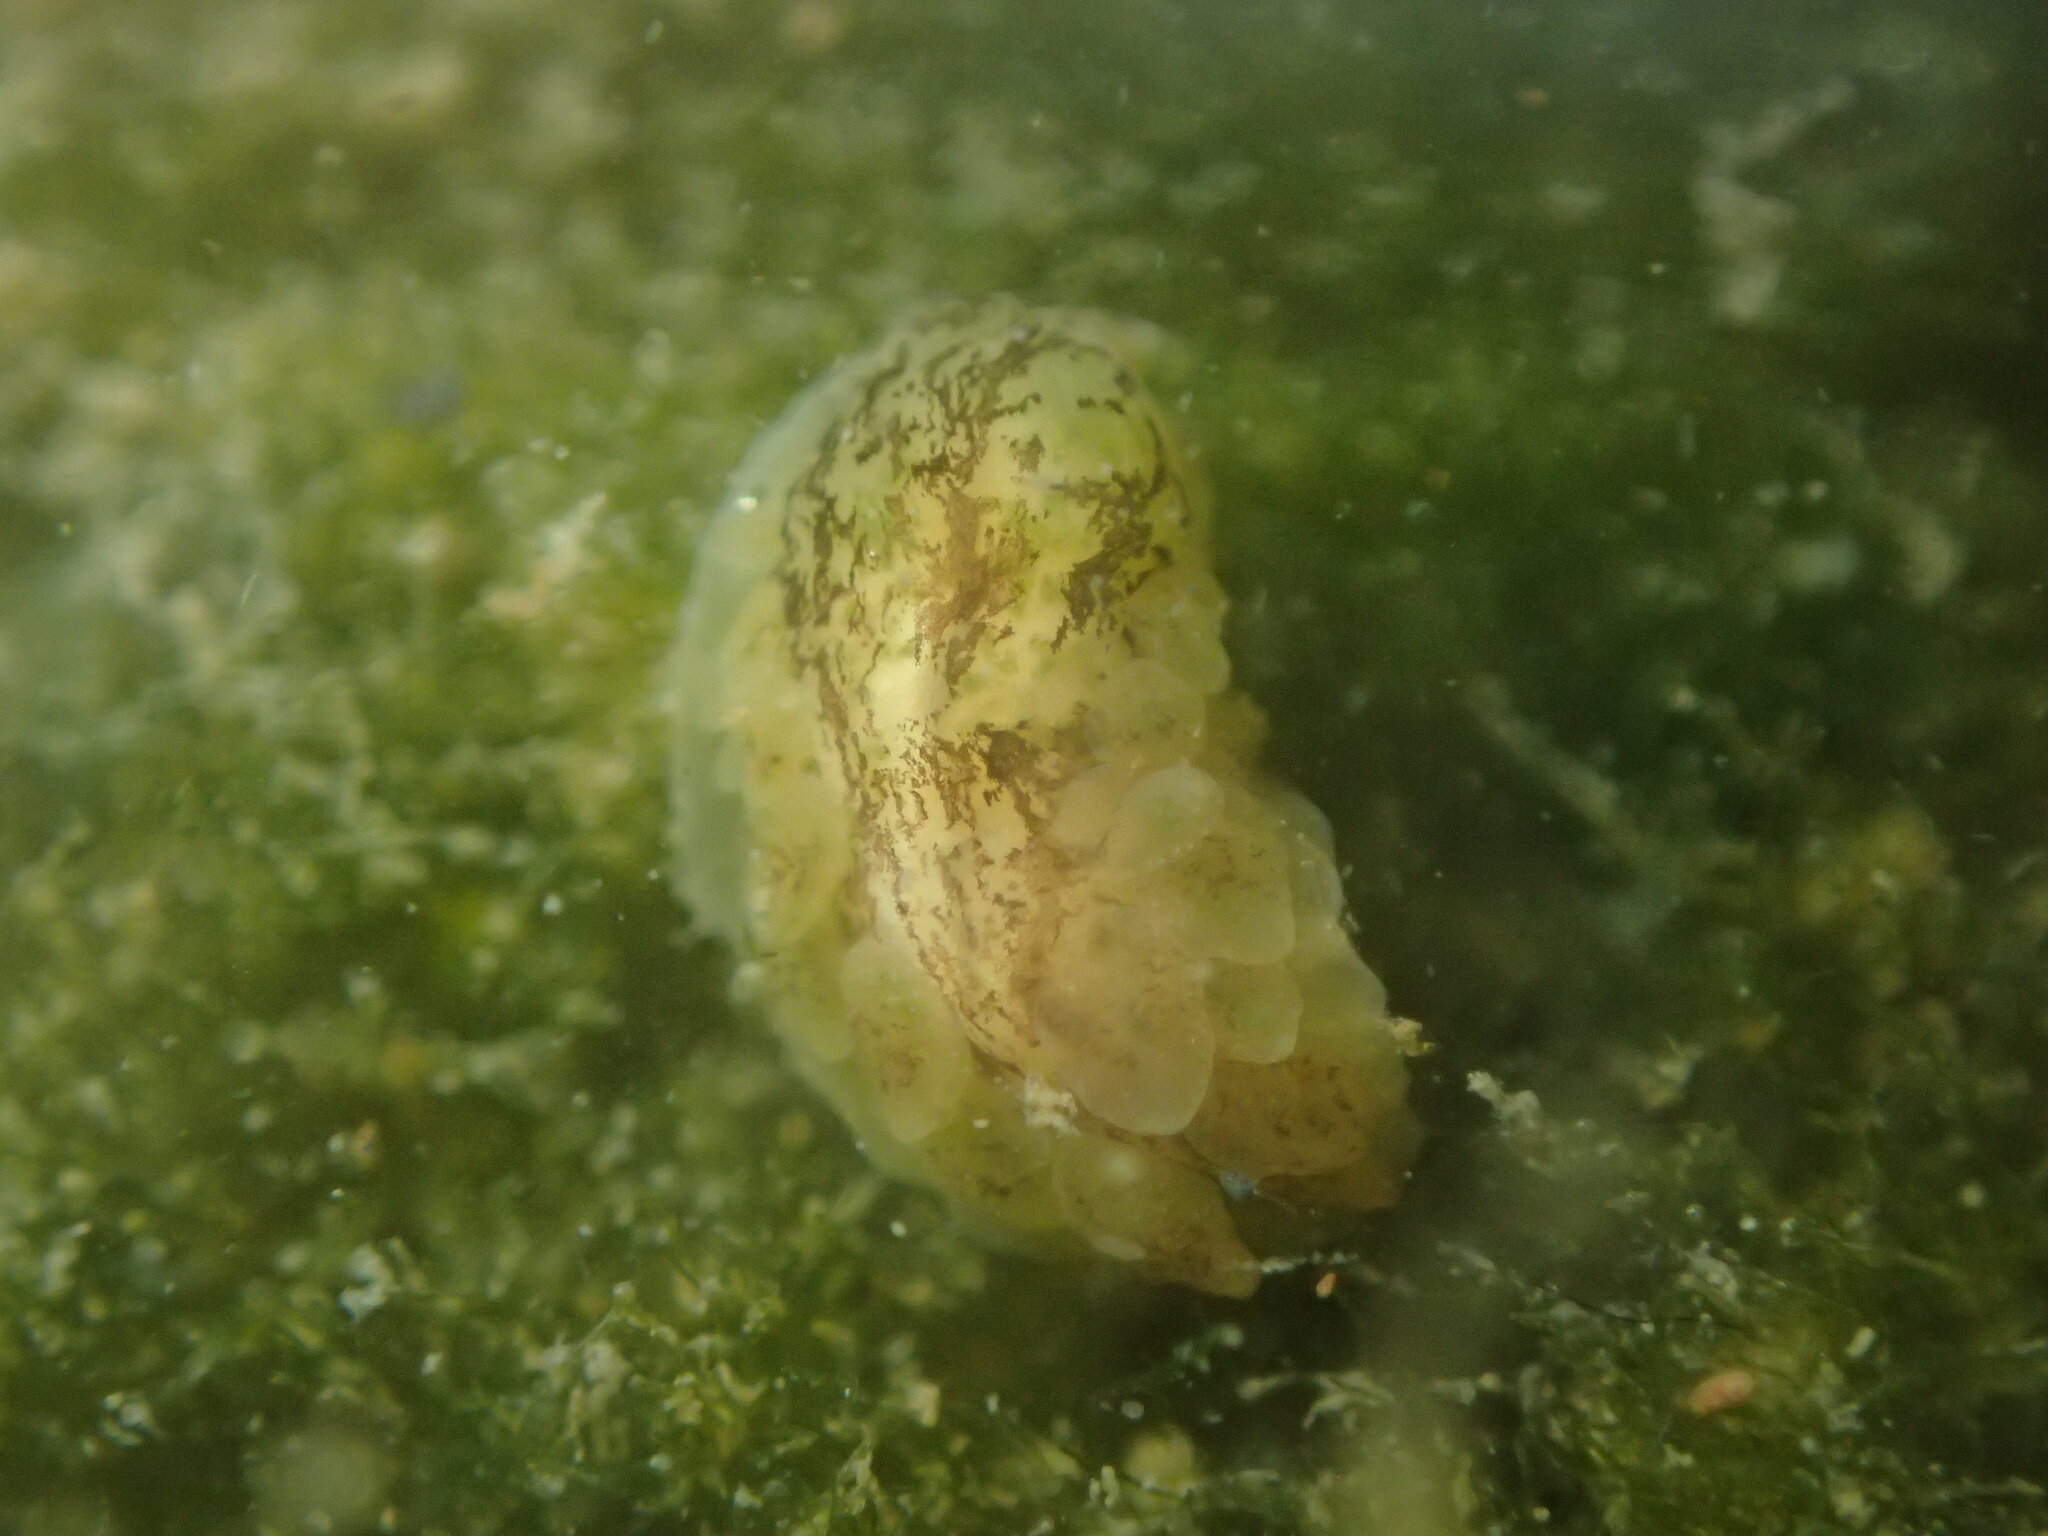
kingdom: Animalia
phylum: Mollusca
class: Gastropoda
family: Limapontiidae
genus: Alderia
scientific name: Alderia modesta
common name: Modest alderia
